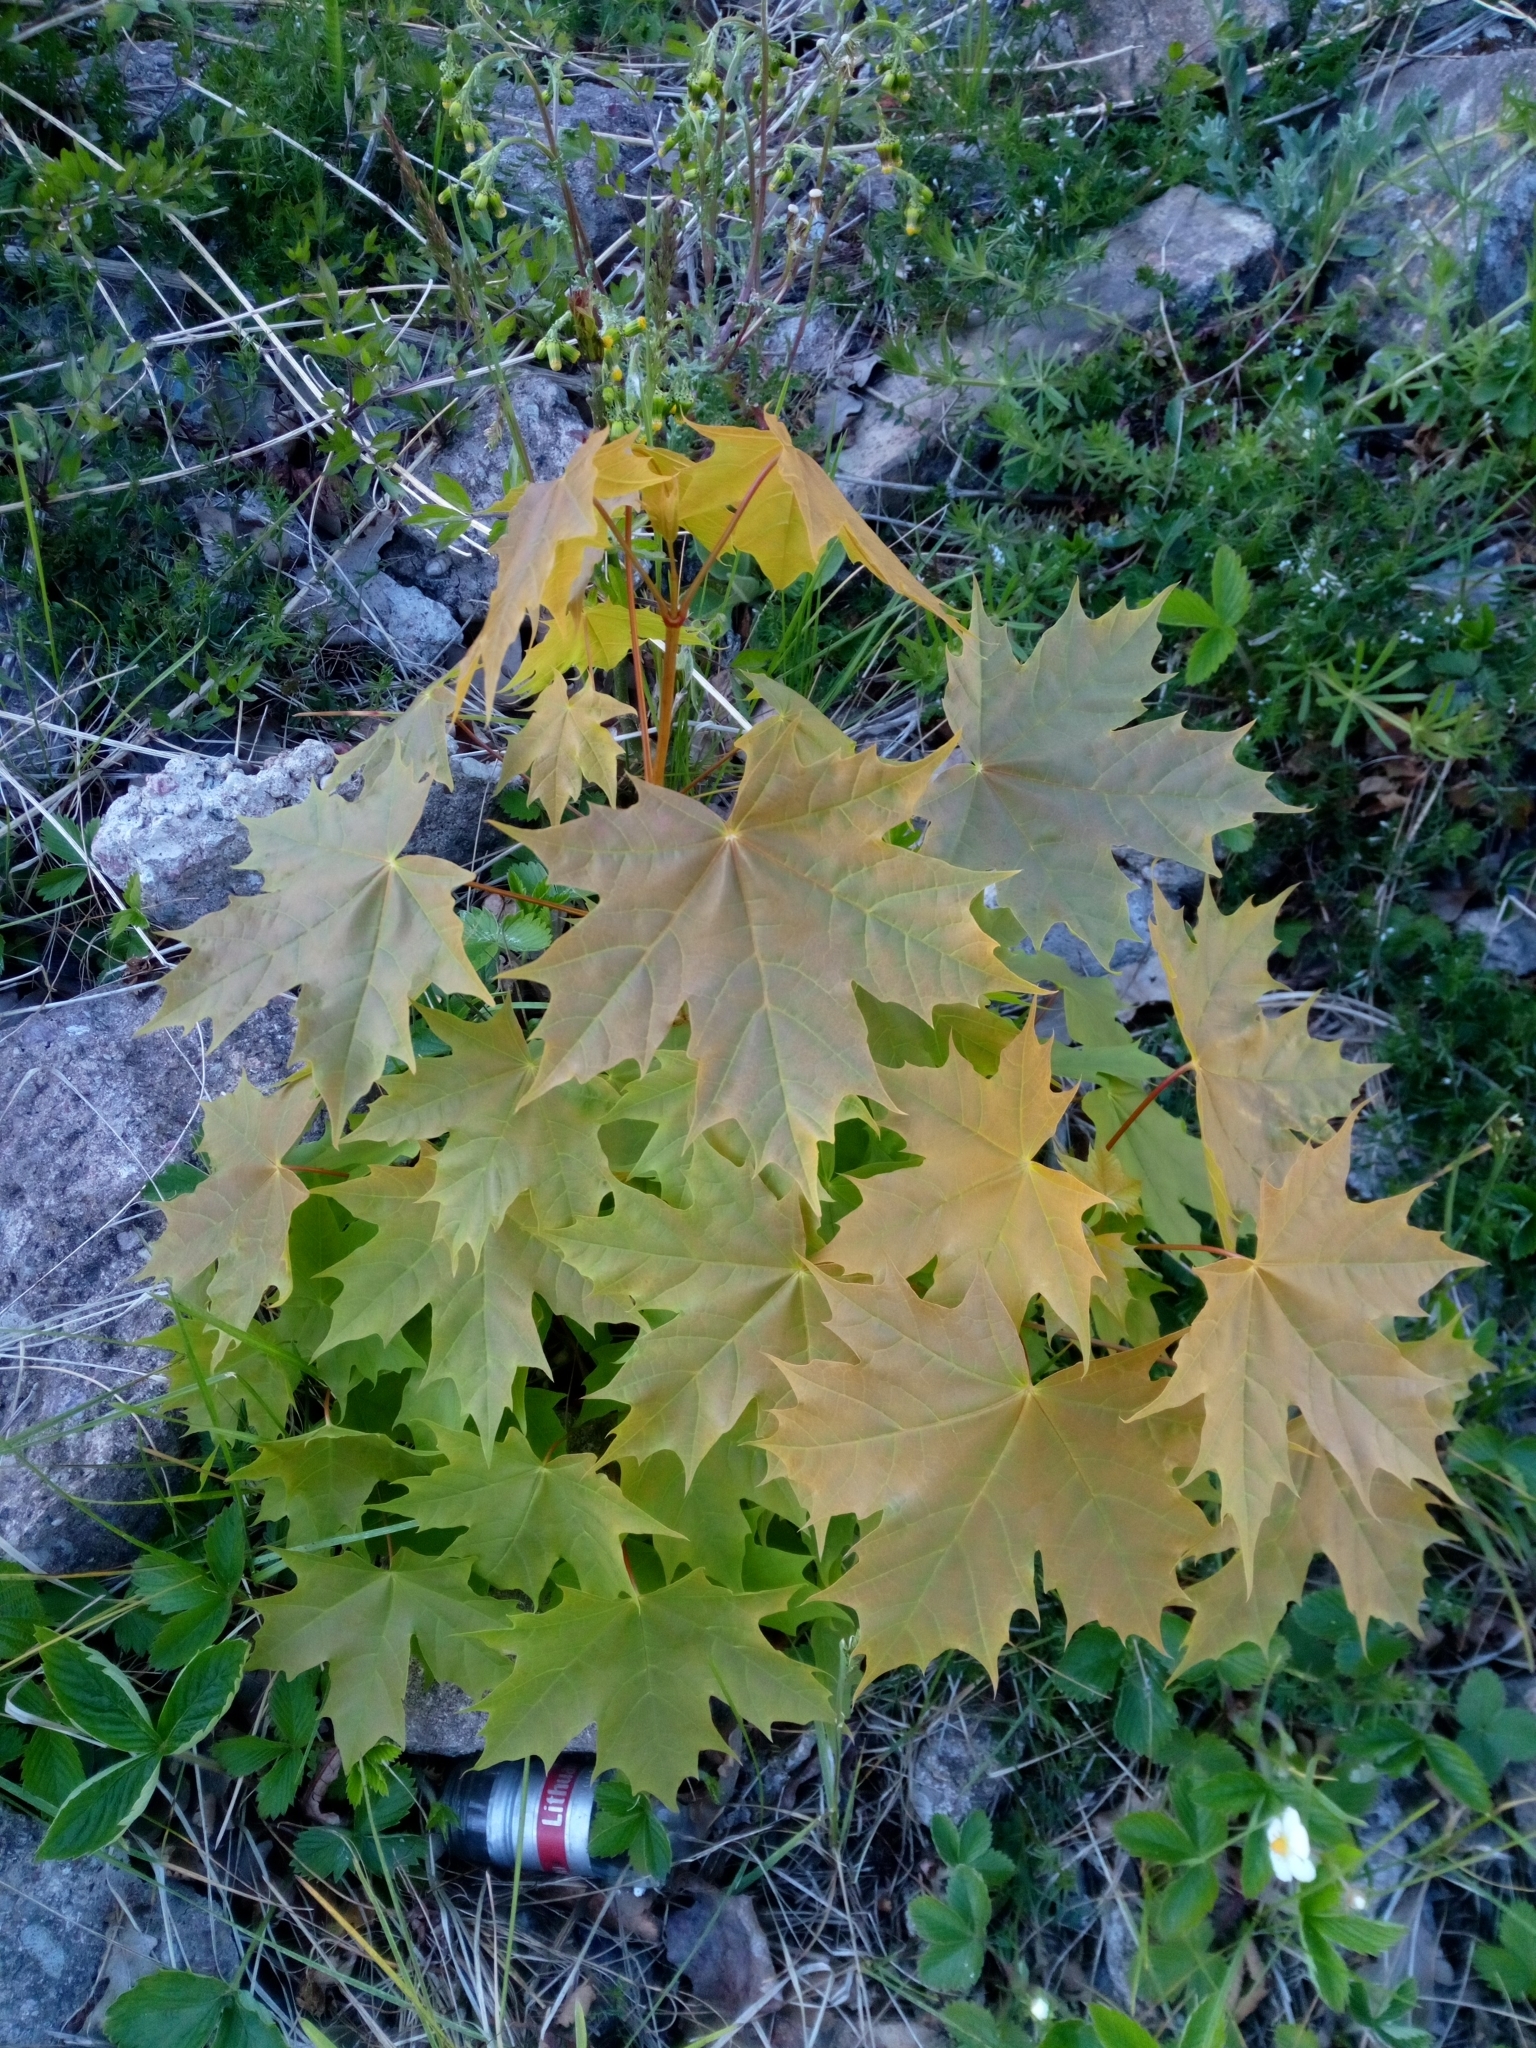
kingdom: Plantae
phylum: Tracheophyta
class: Magnoliopsida
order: Sapindales
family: Sapindaceae
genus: Acer
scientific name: Acer platanoides
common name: Norway maple
